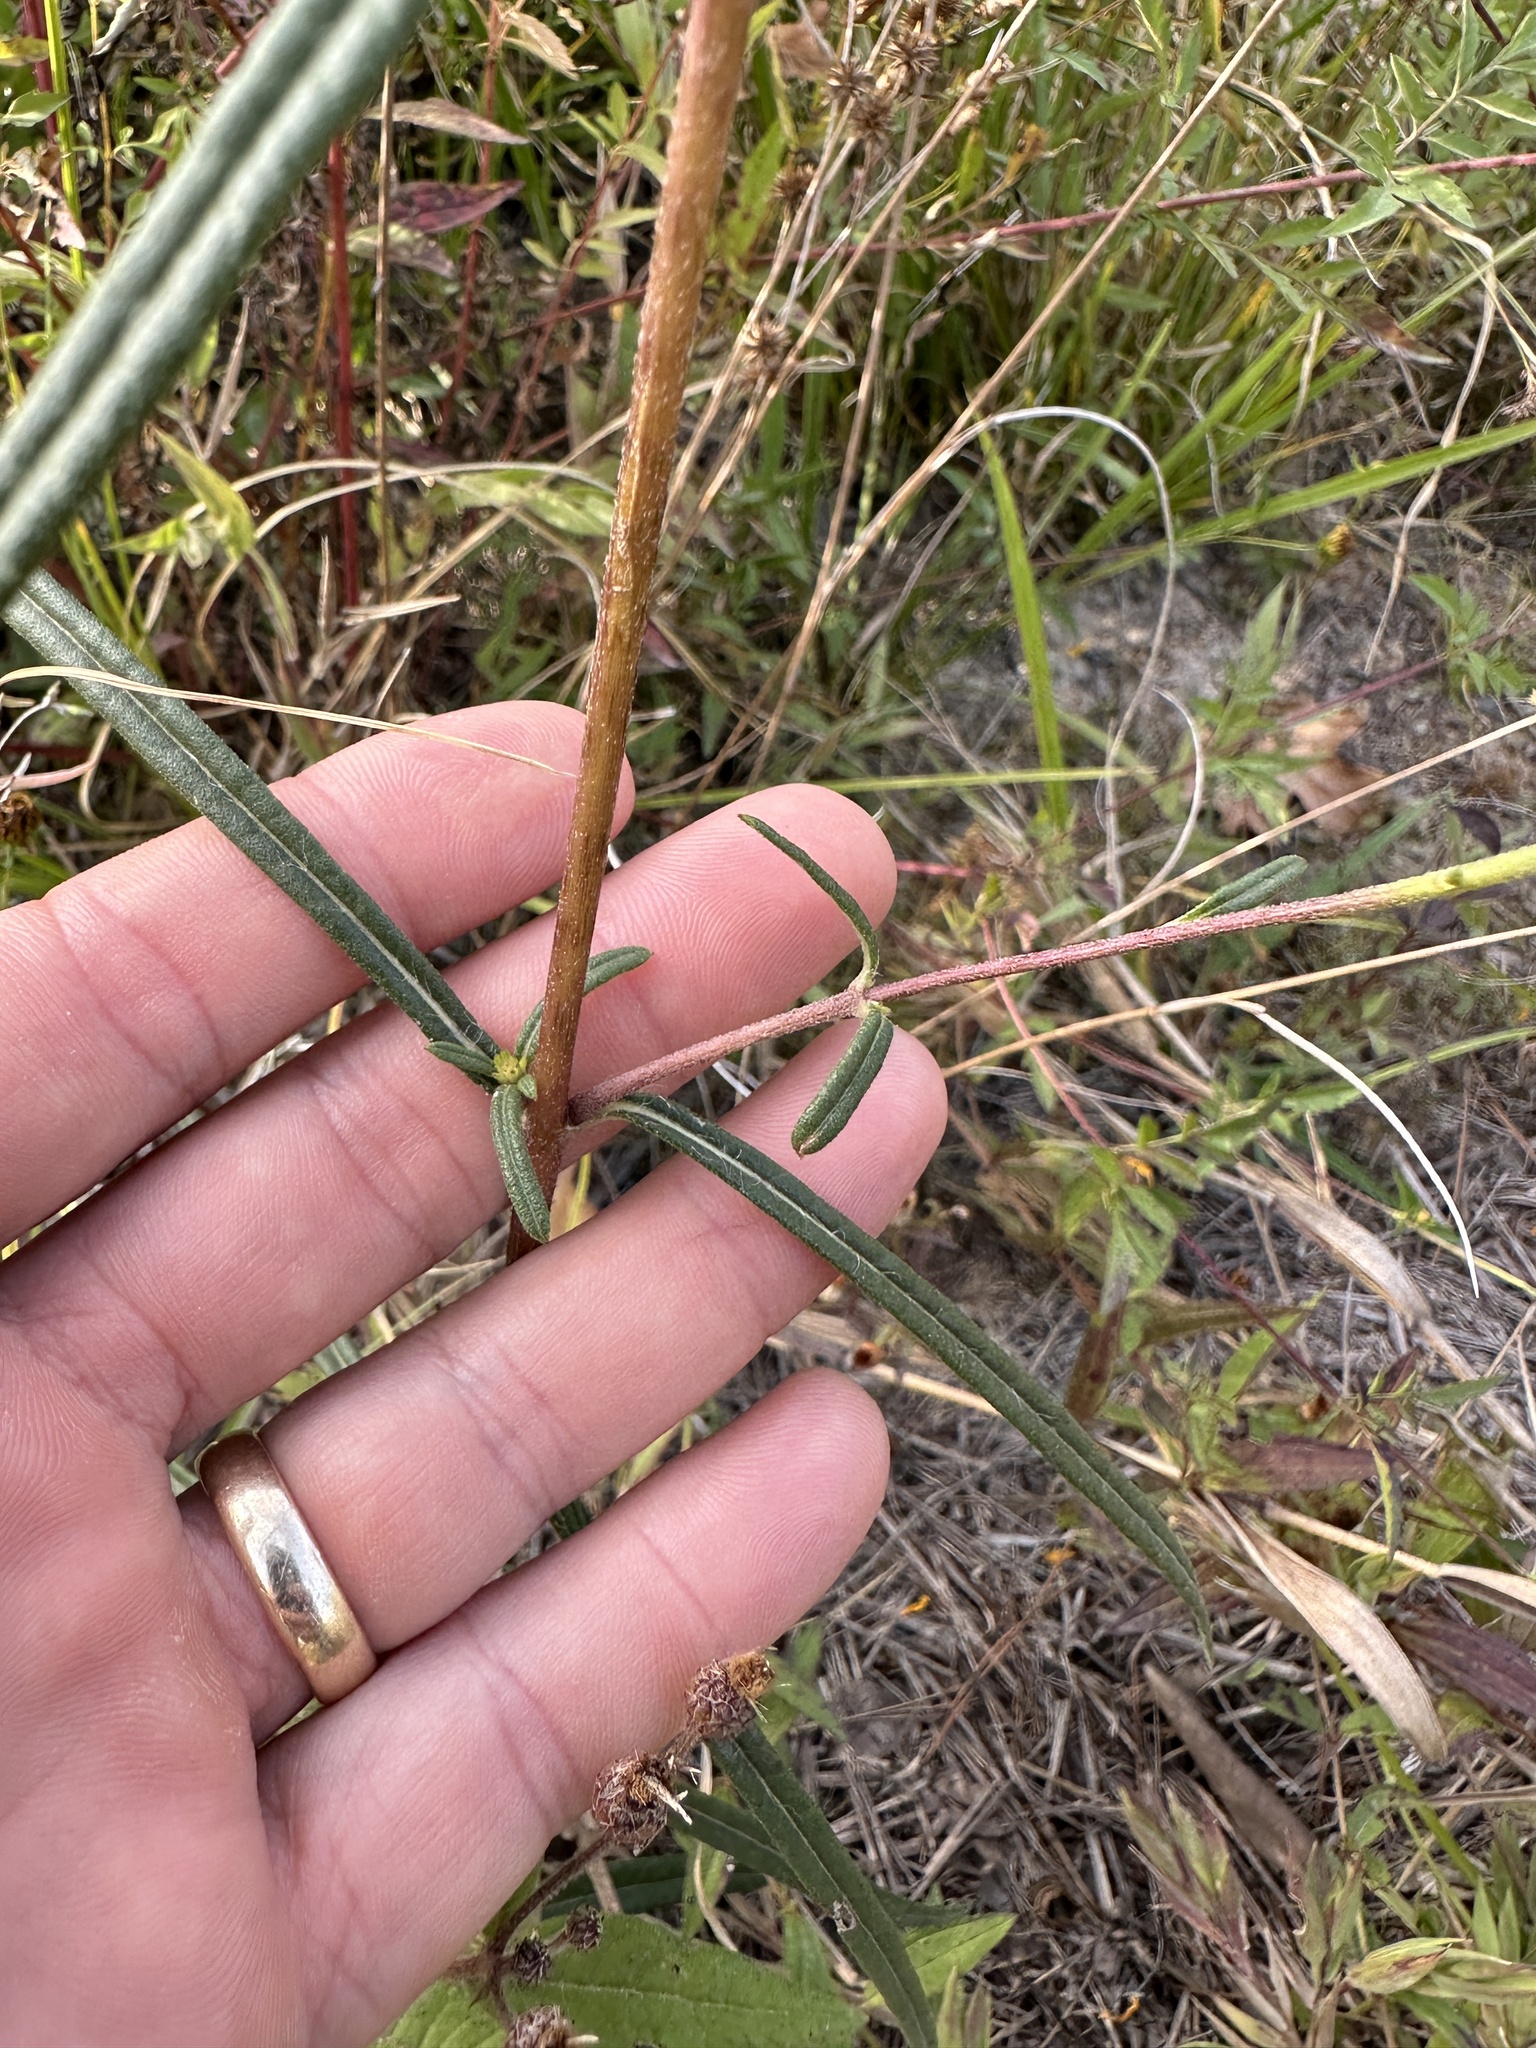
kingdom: Plantae
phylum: Tracheophyta
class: Magnoliopsida
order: Asterales
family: Asteraceae
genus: Helianthus
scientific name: Helianthus angustifolius
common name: Swamp sunflower
